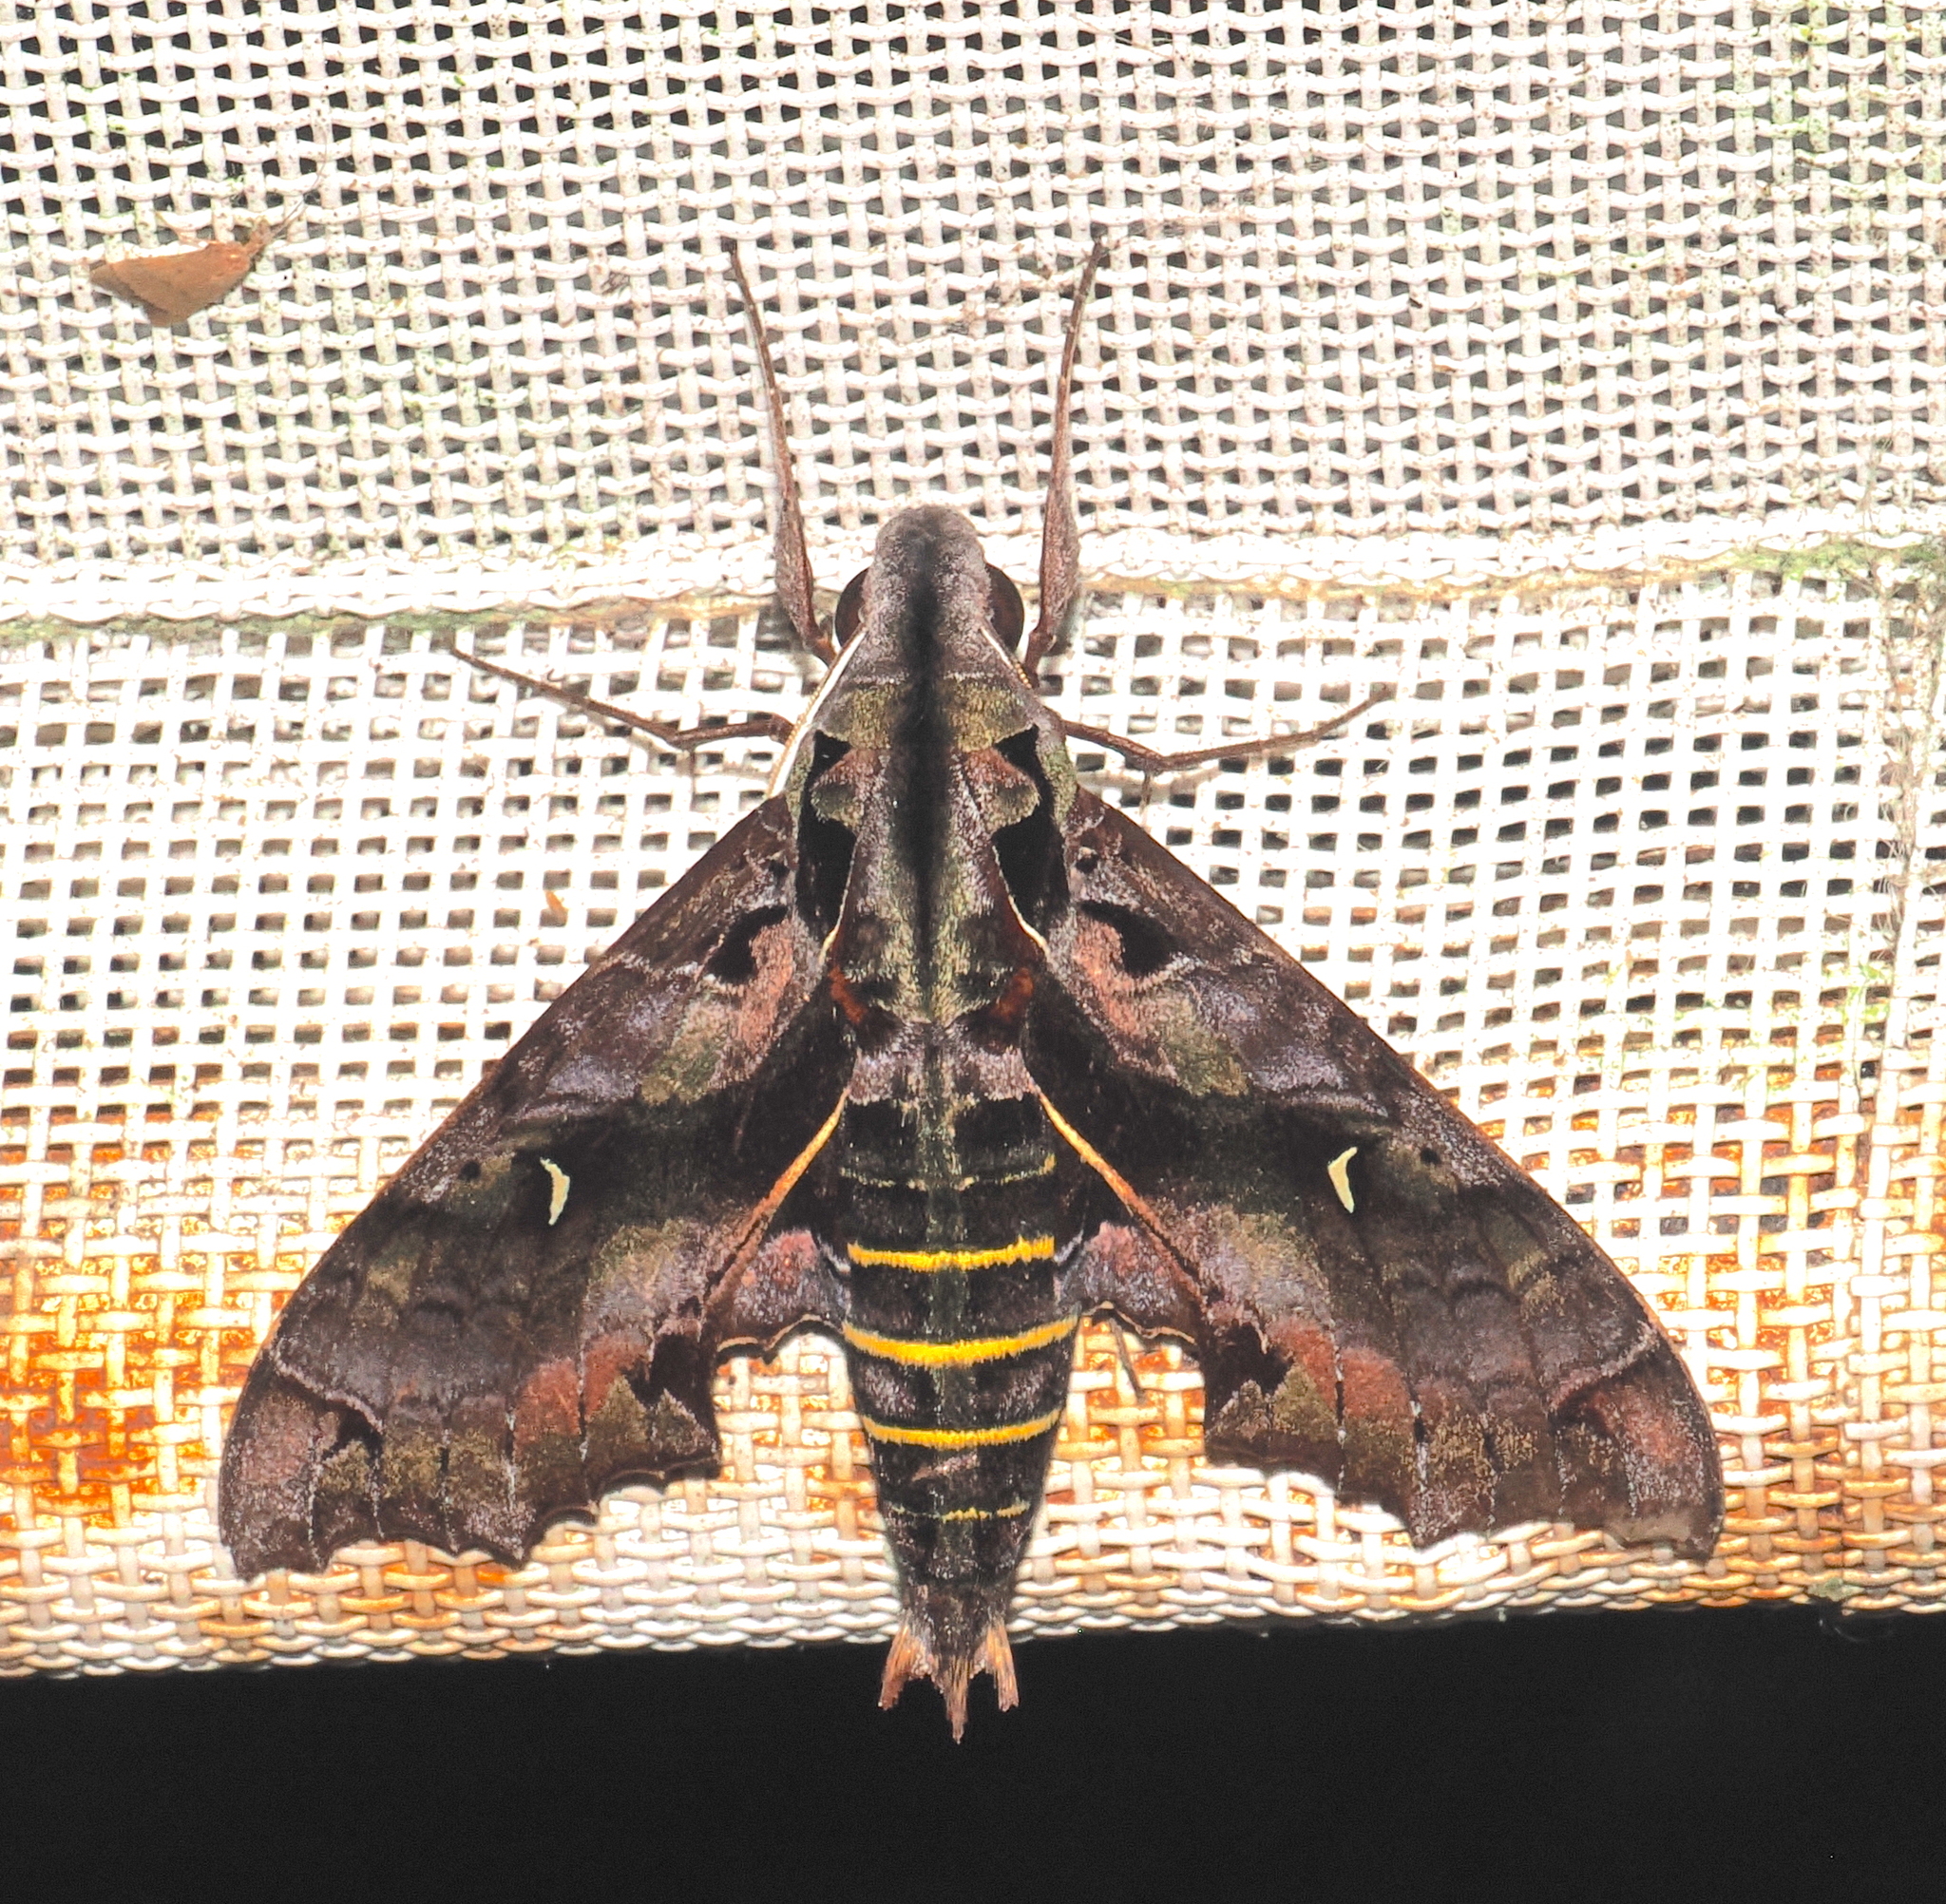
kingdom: Animalia
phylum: Arthropoda
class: Insecta
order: Lepidoptera
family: Sphingidae
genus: Hemeroplanes
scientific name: Hemeroplanes diffusa
